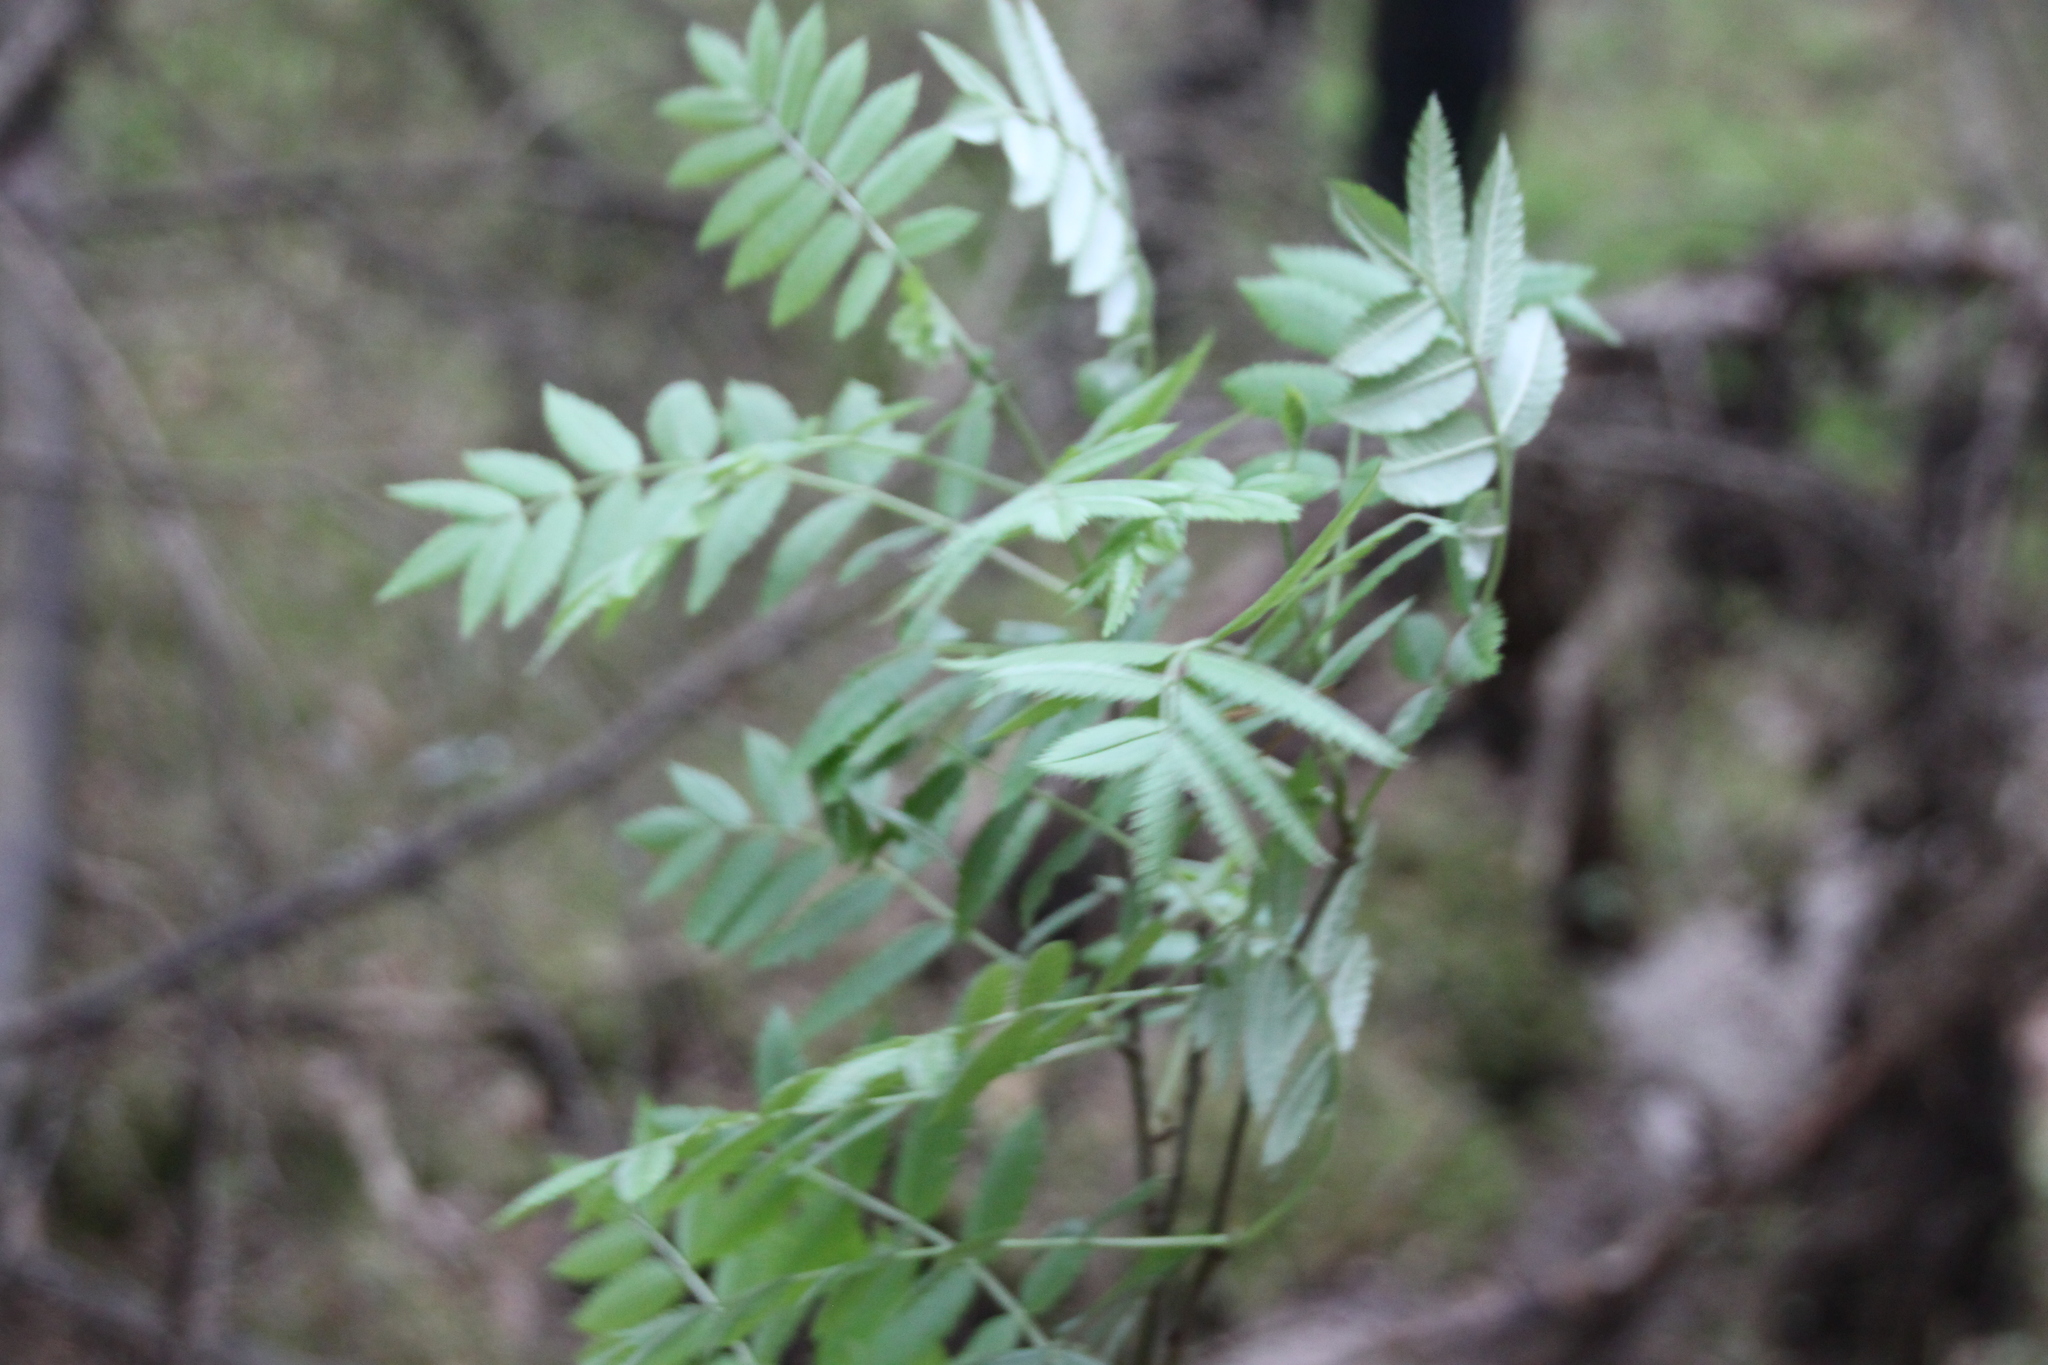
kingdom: Plantae
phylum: Tracheophyta
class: Magnoliopsida
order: Rosales
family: Rosaceae
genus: Sorbus
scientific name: Sorbus aucuparia
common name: Rowan
